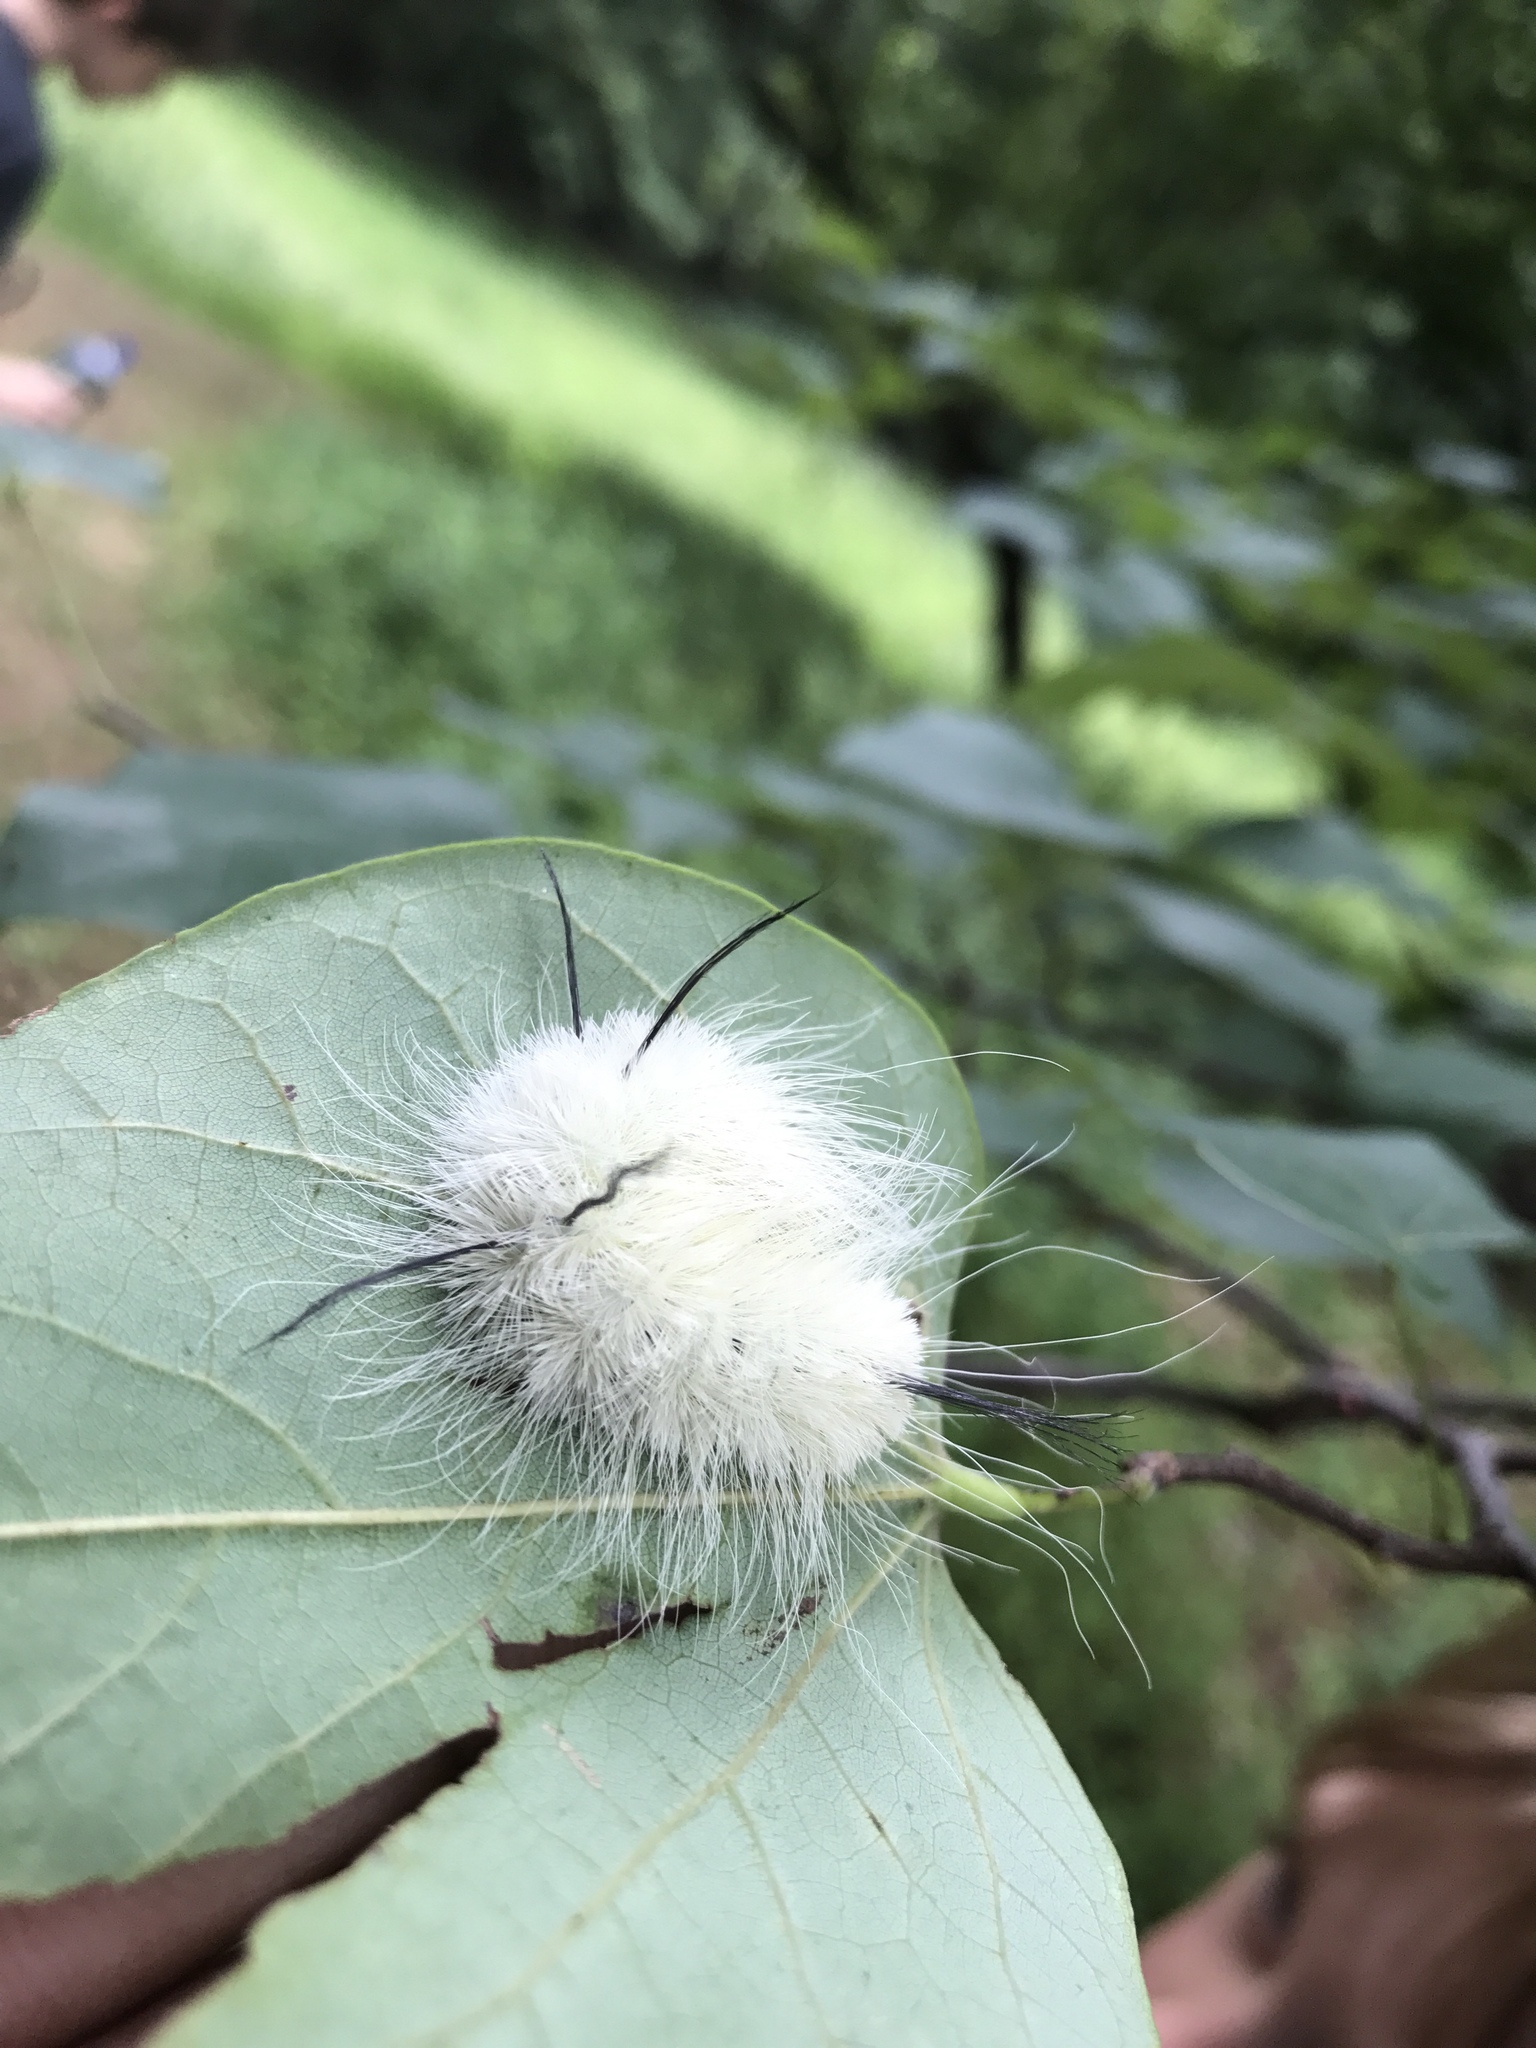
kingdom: Animalia
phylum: Arthropoda
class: Insecta
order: Lepidoptera
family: Noctuidae
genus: Acronicta
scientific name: Acronicta americana
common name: American dagger
